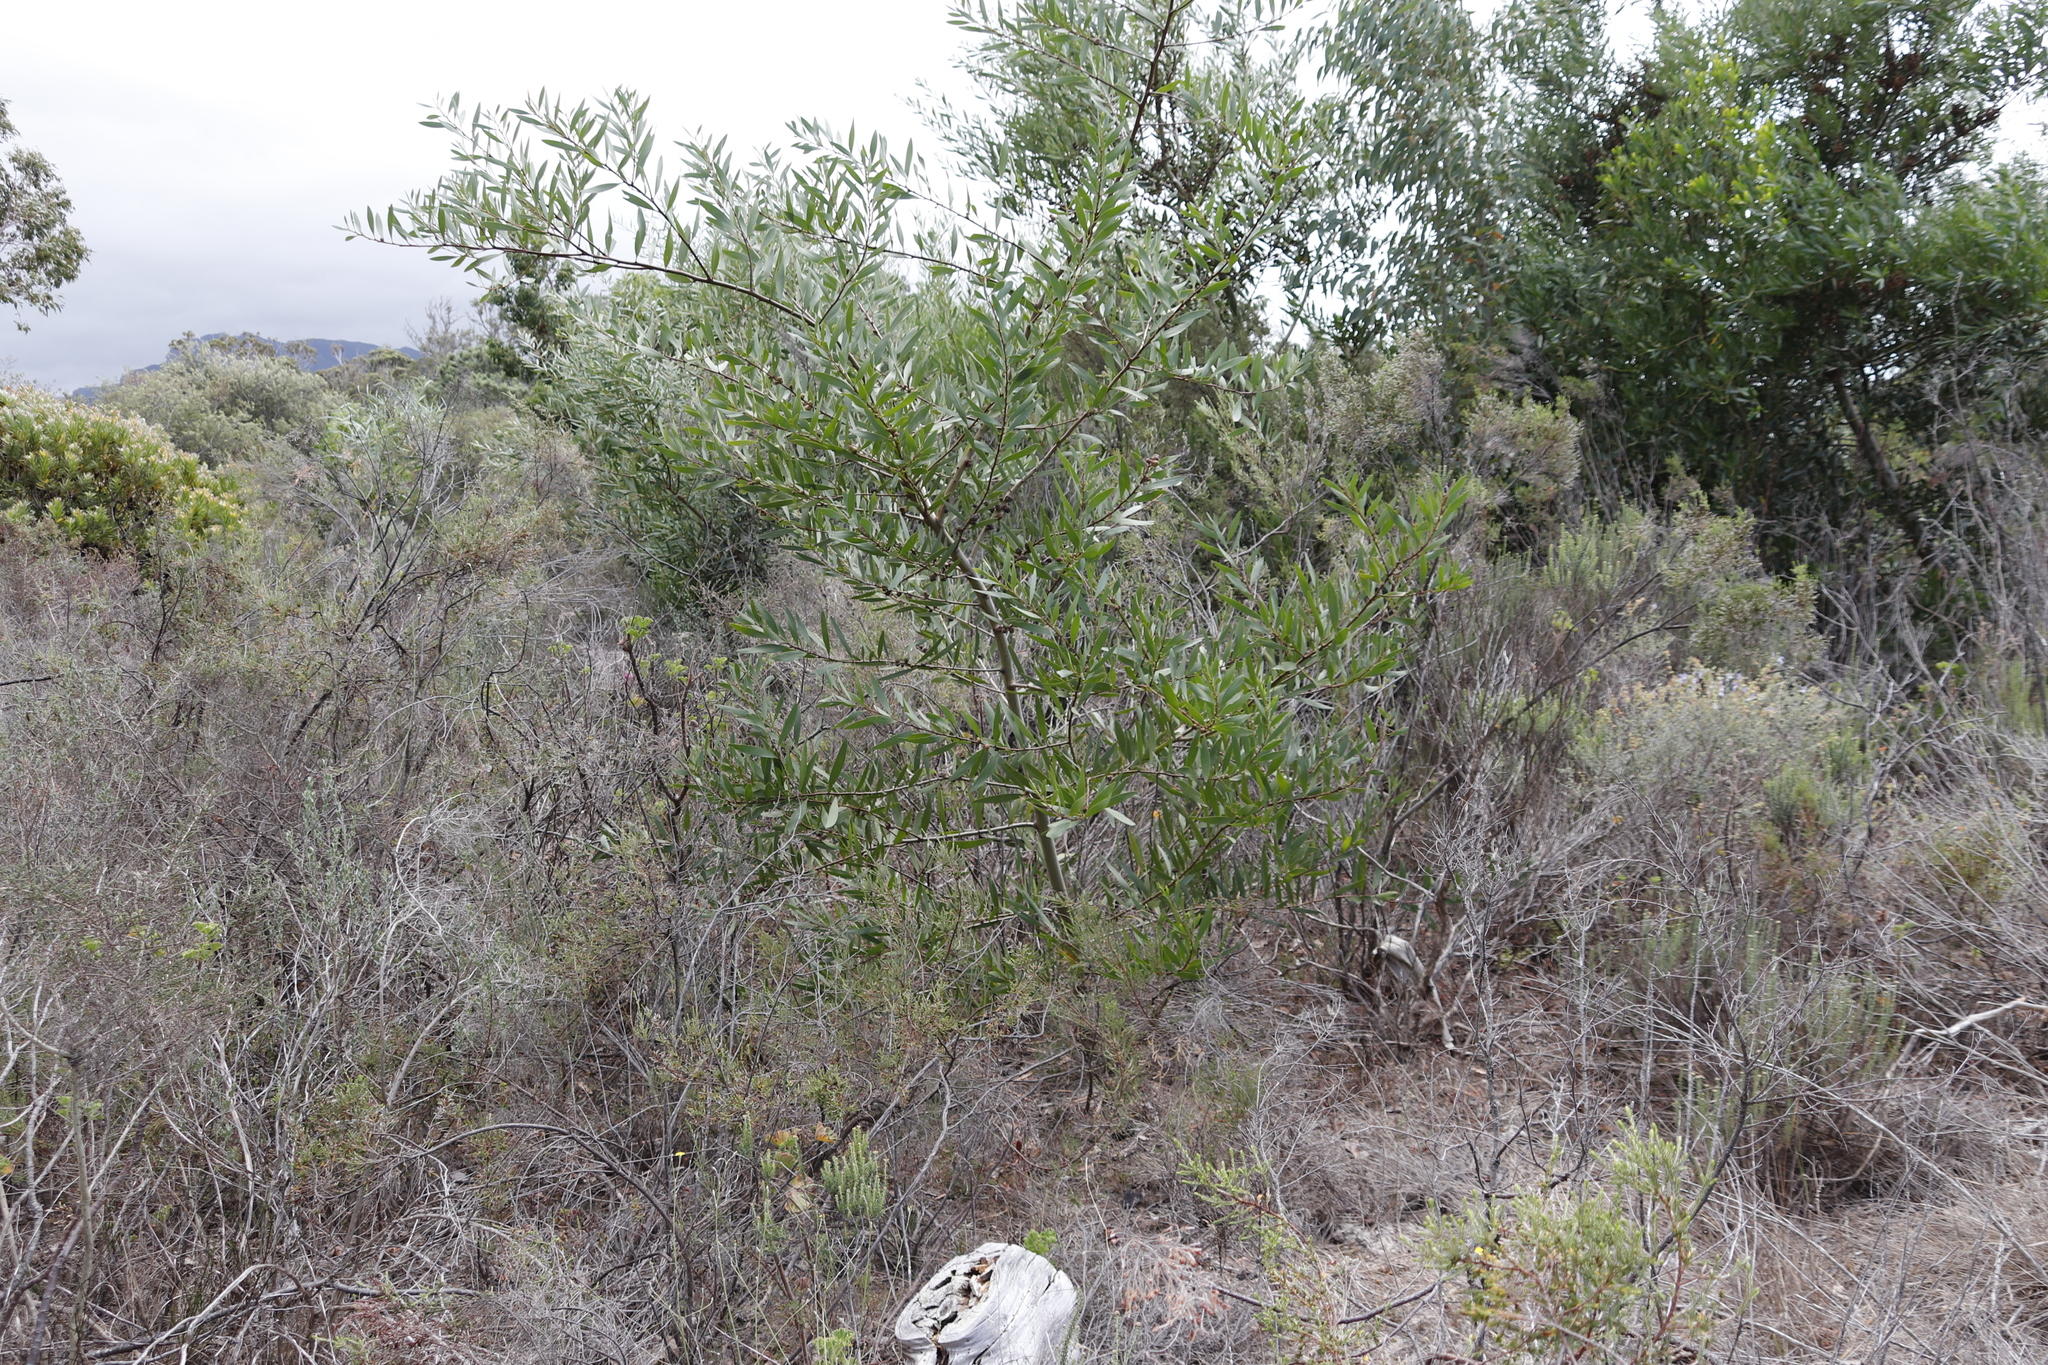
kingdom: Plantae
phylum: Tracheophyta
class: Magnoliopsida
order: Fabales
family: Fabaceae
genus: Acacia
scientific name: Acacia longifolia
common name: Sydney golden wattle
